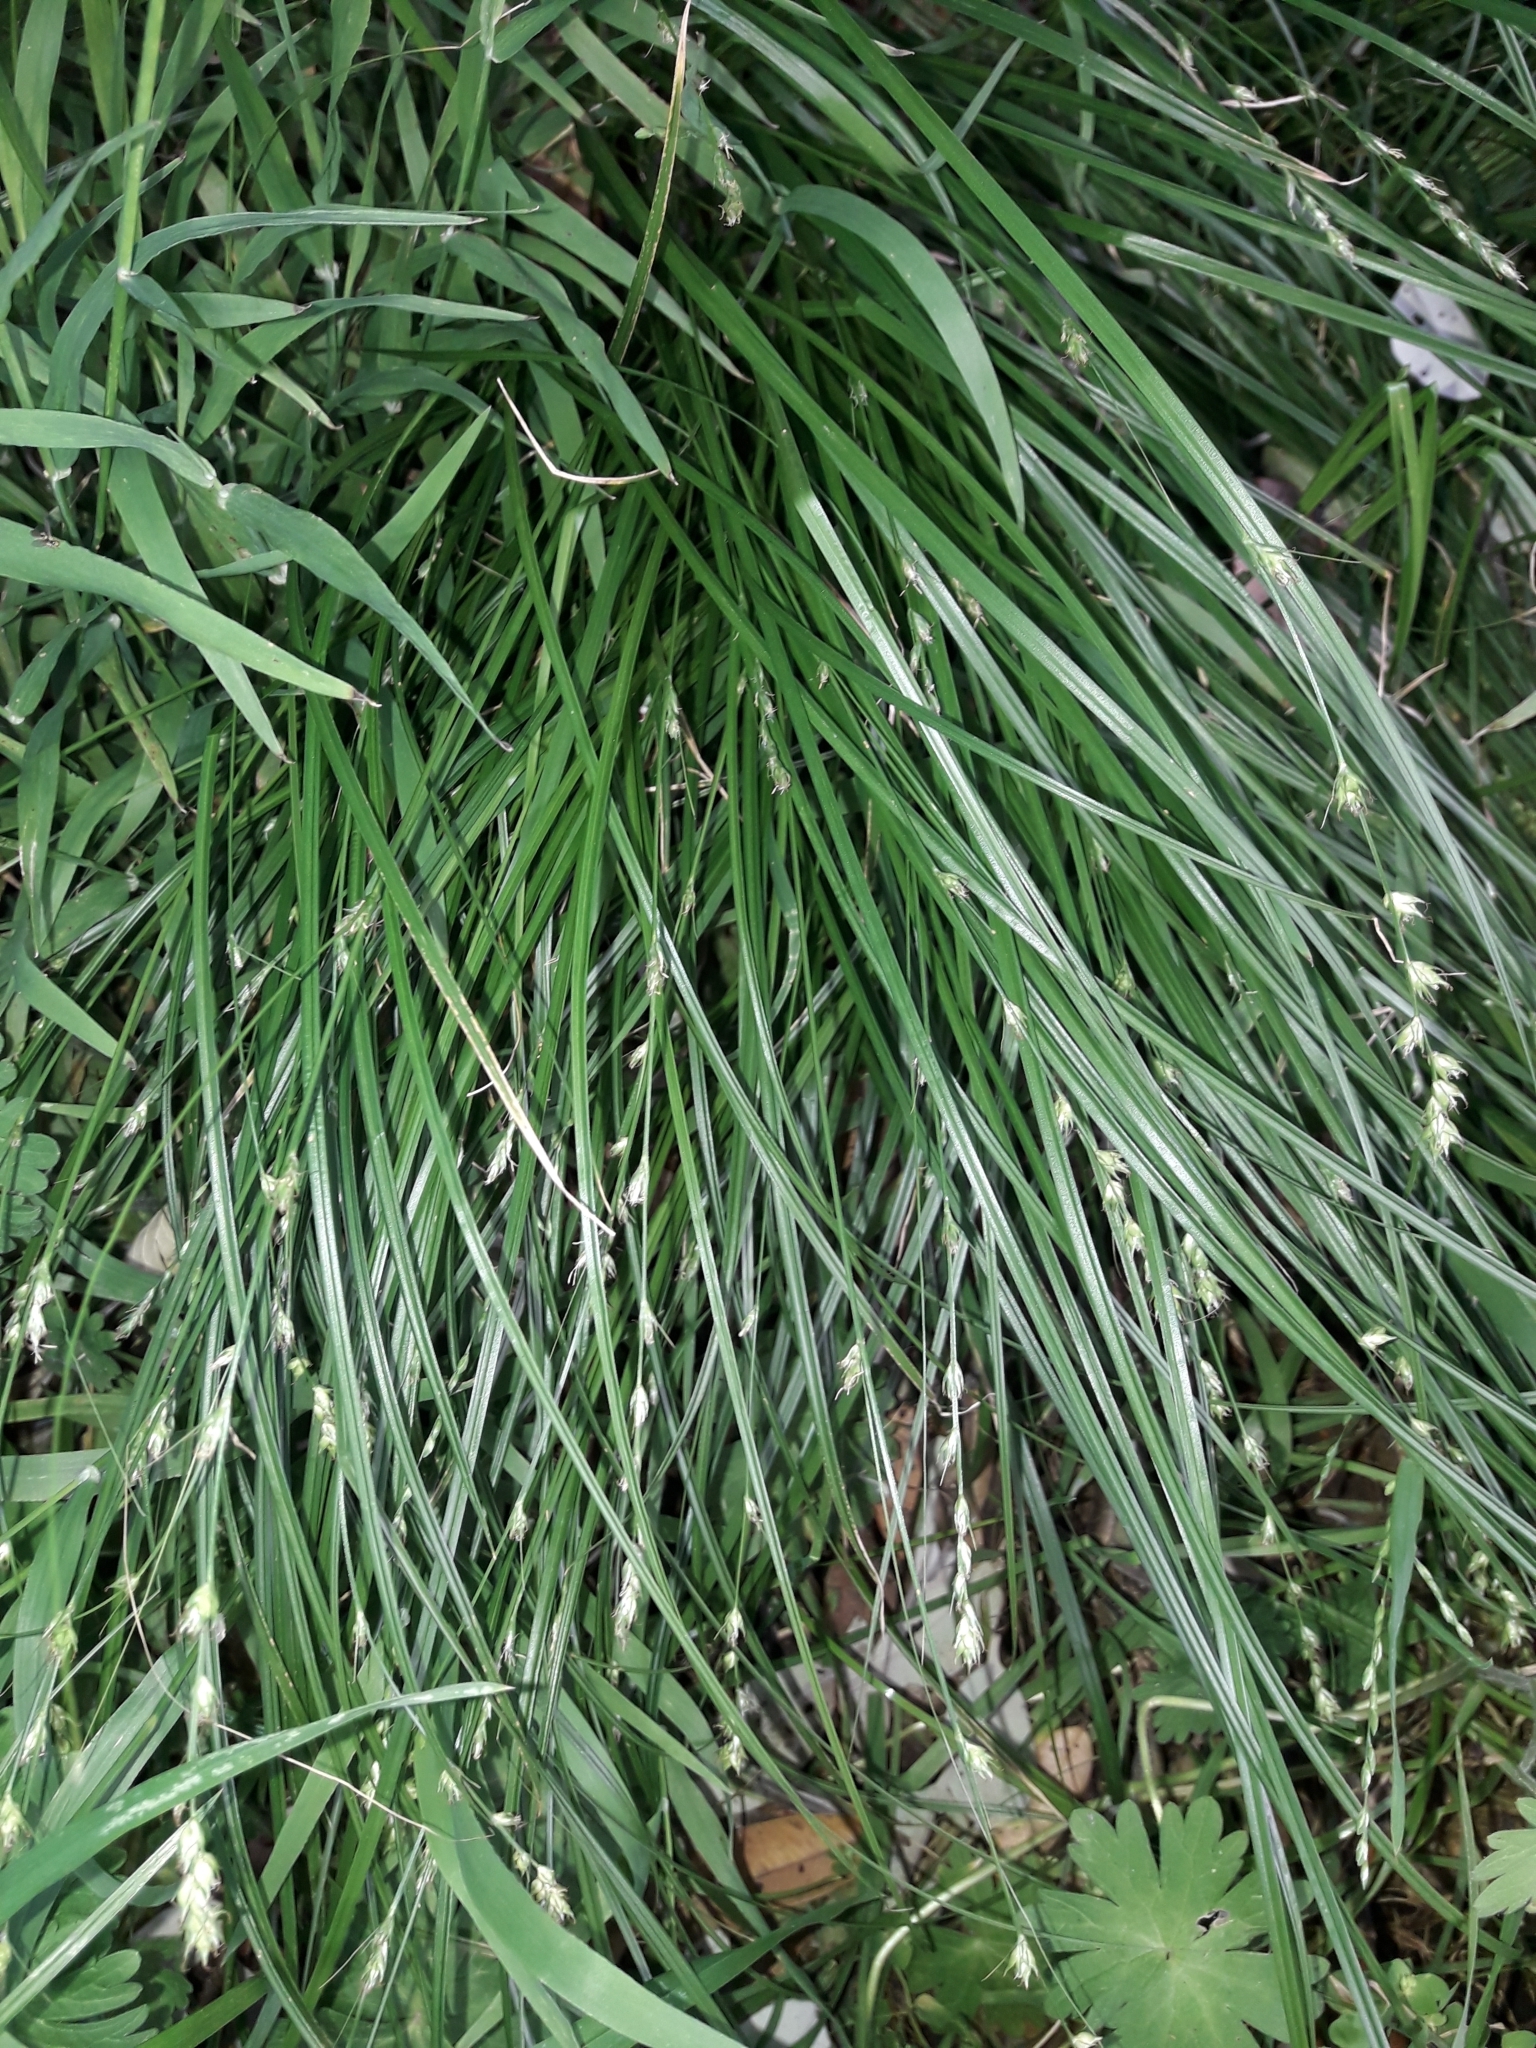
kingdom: Plantae
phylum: Tracheophyta
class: Liliopsida
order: Poales
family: Cyperaceae
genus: Carex
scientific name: Carex divulsa
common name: Grassland sedge
